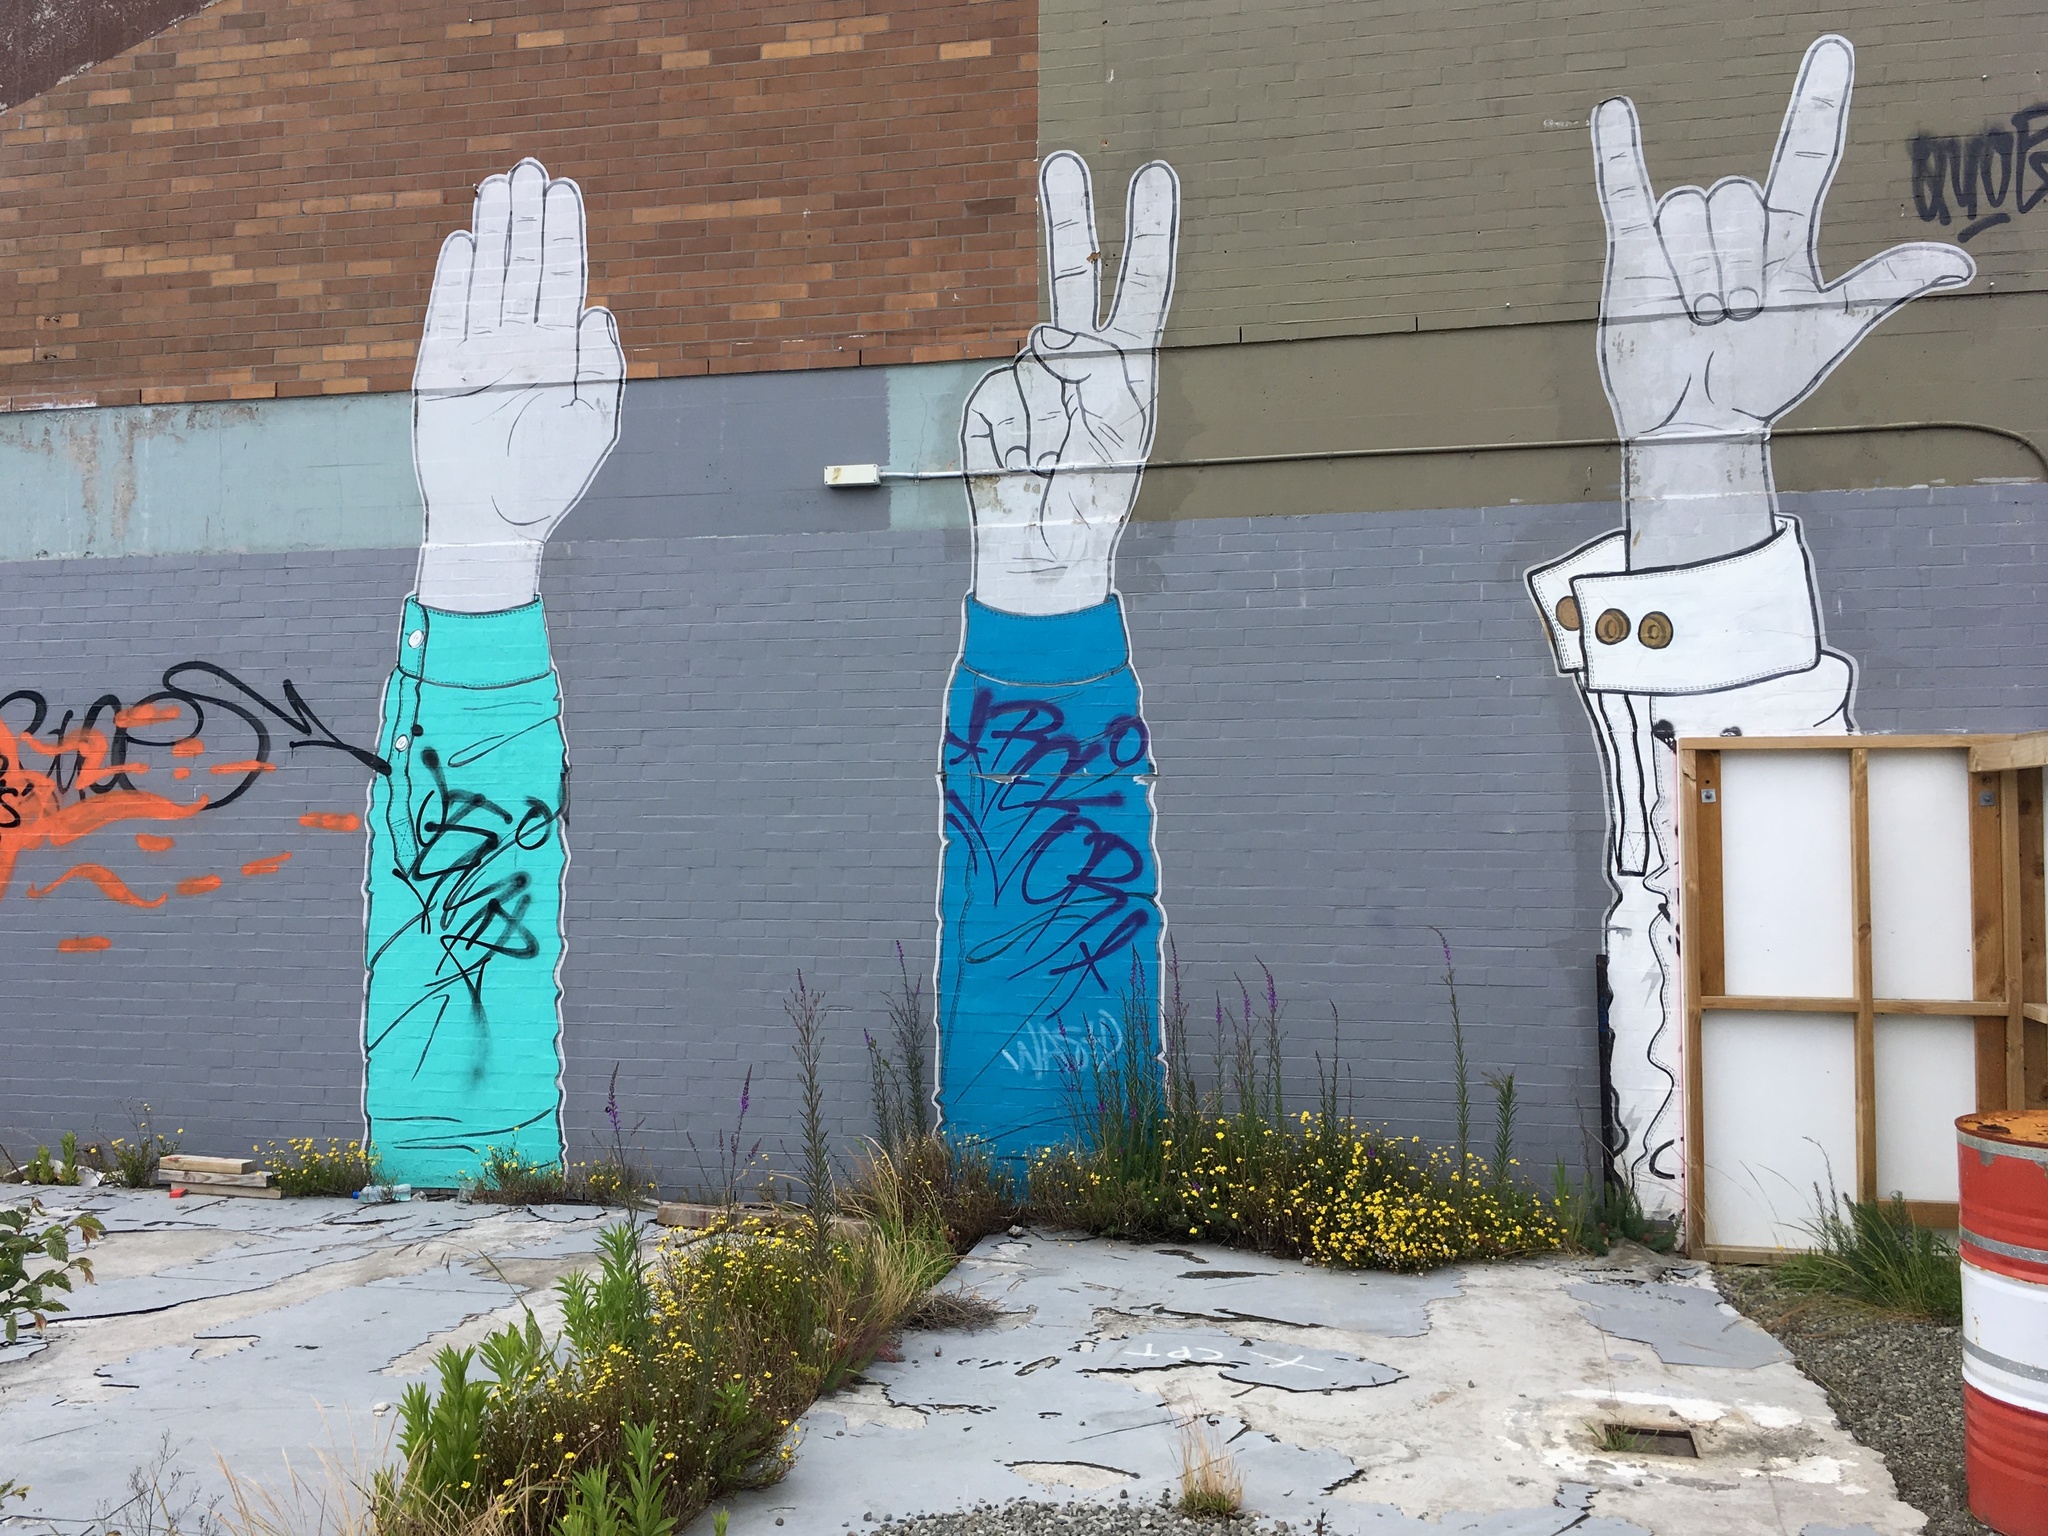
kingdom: Plantae
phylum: Tracheophyta
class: Magnoliopsida
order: Asterales
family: Asteraceae
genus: Senecio
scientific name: Senecio skirrhodon
